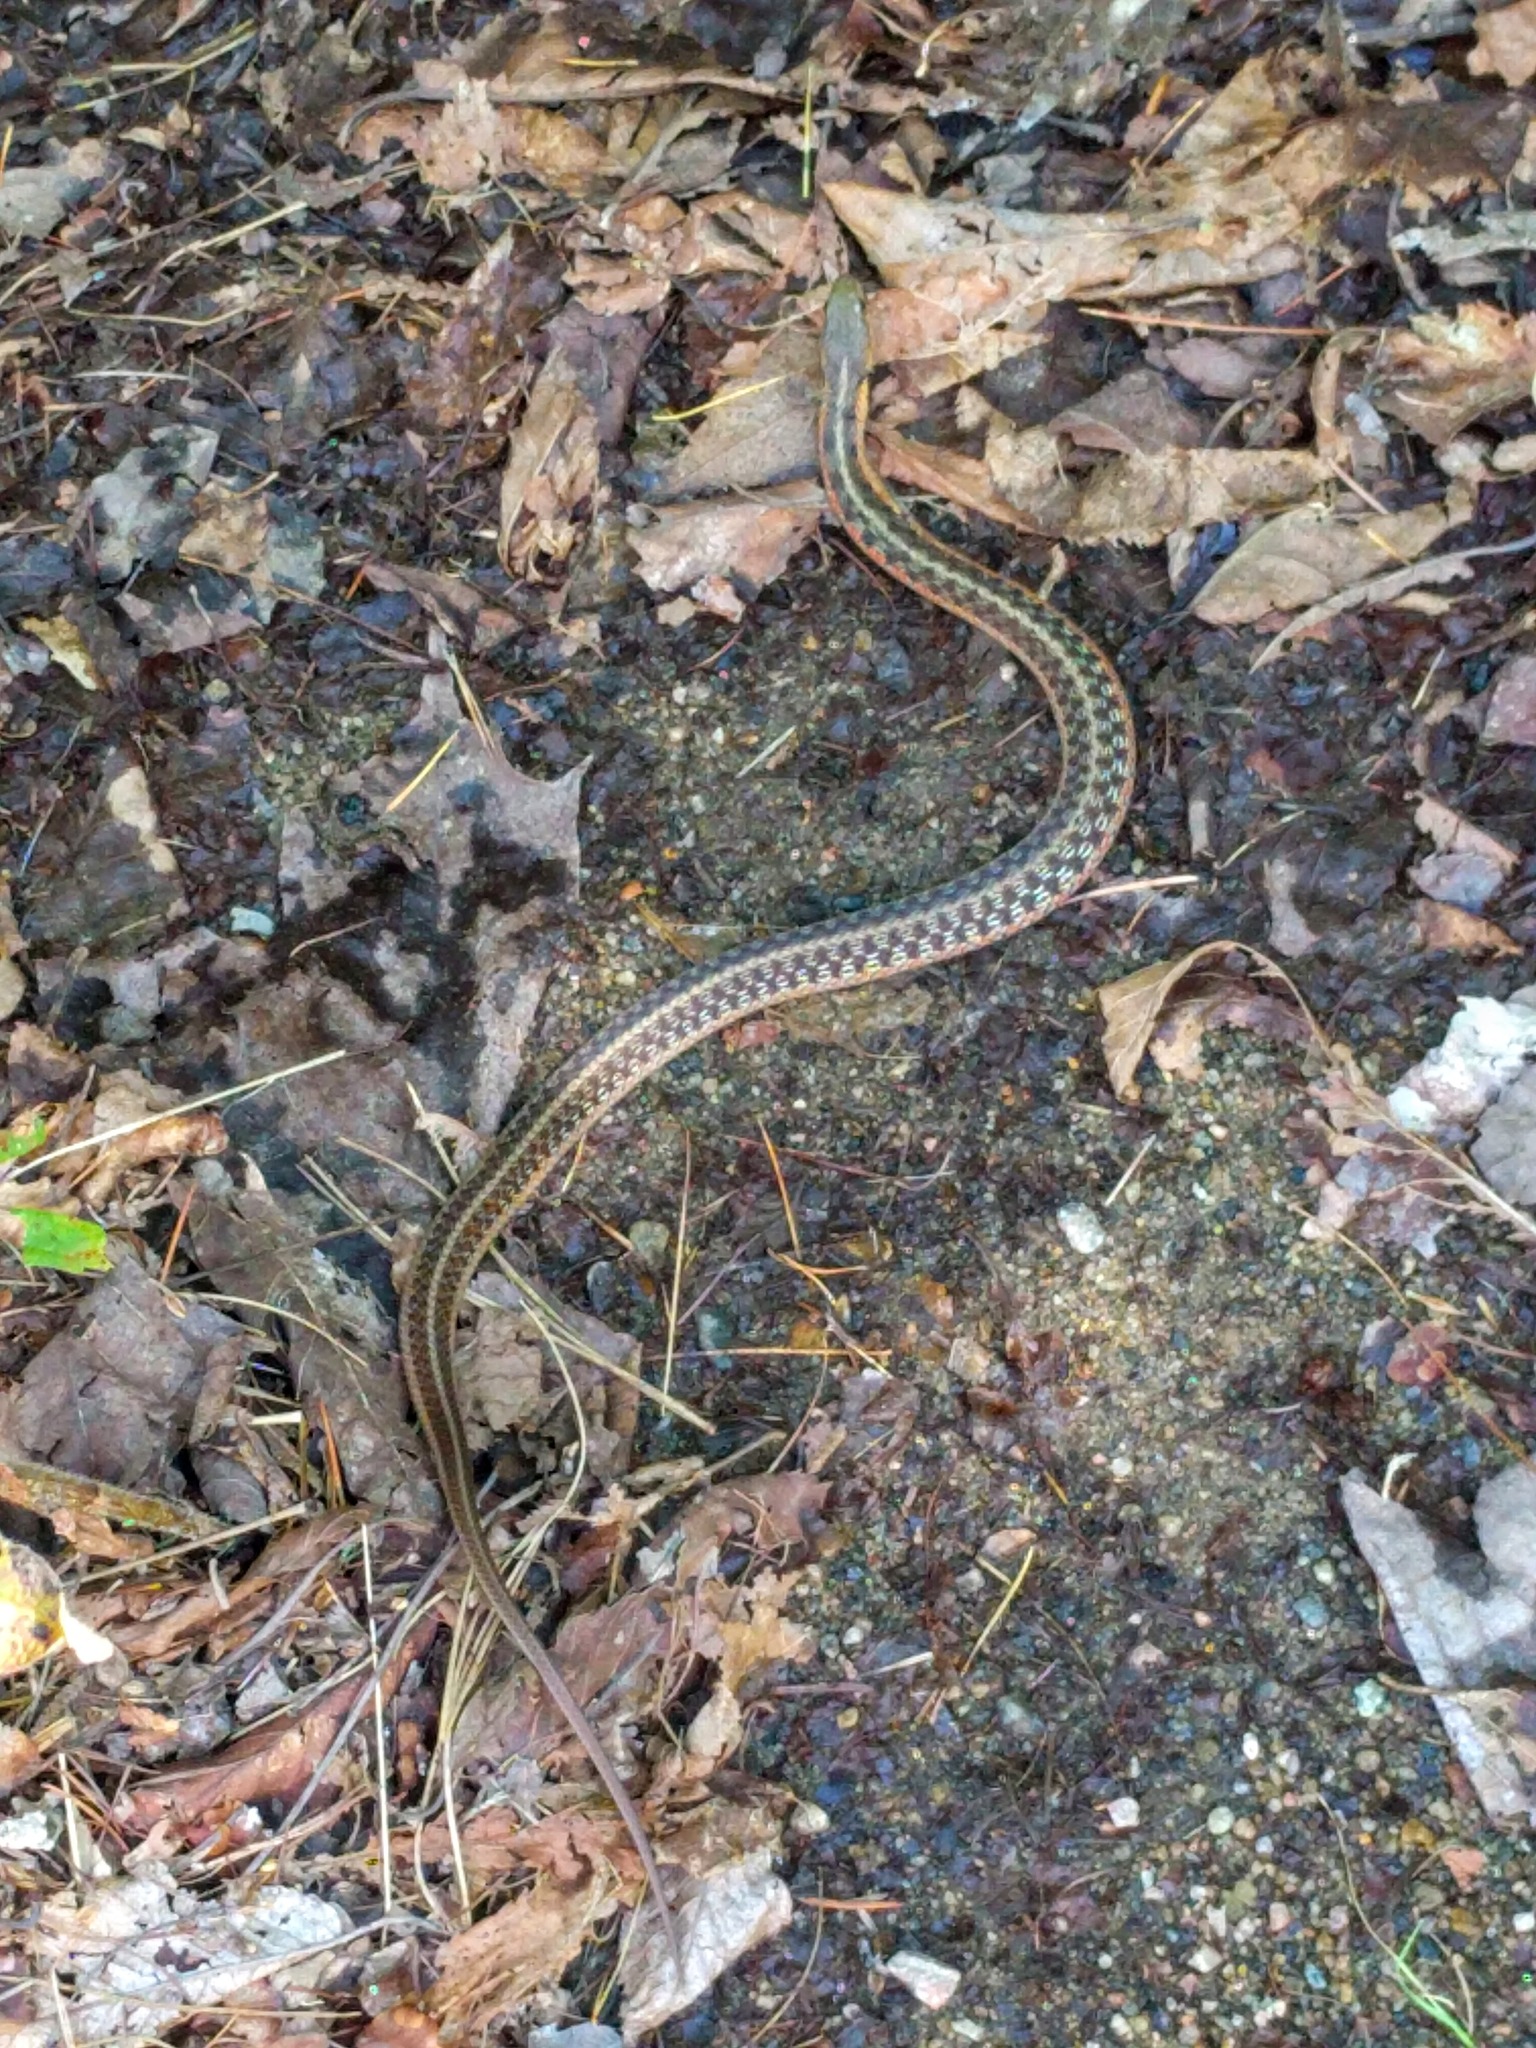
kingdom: Animalia
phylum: Chordata
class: Squamata
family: Colubridae
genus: Thamnophis
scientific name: Thamnophis sirtalis
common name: Common garter snake
